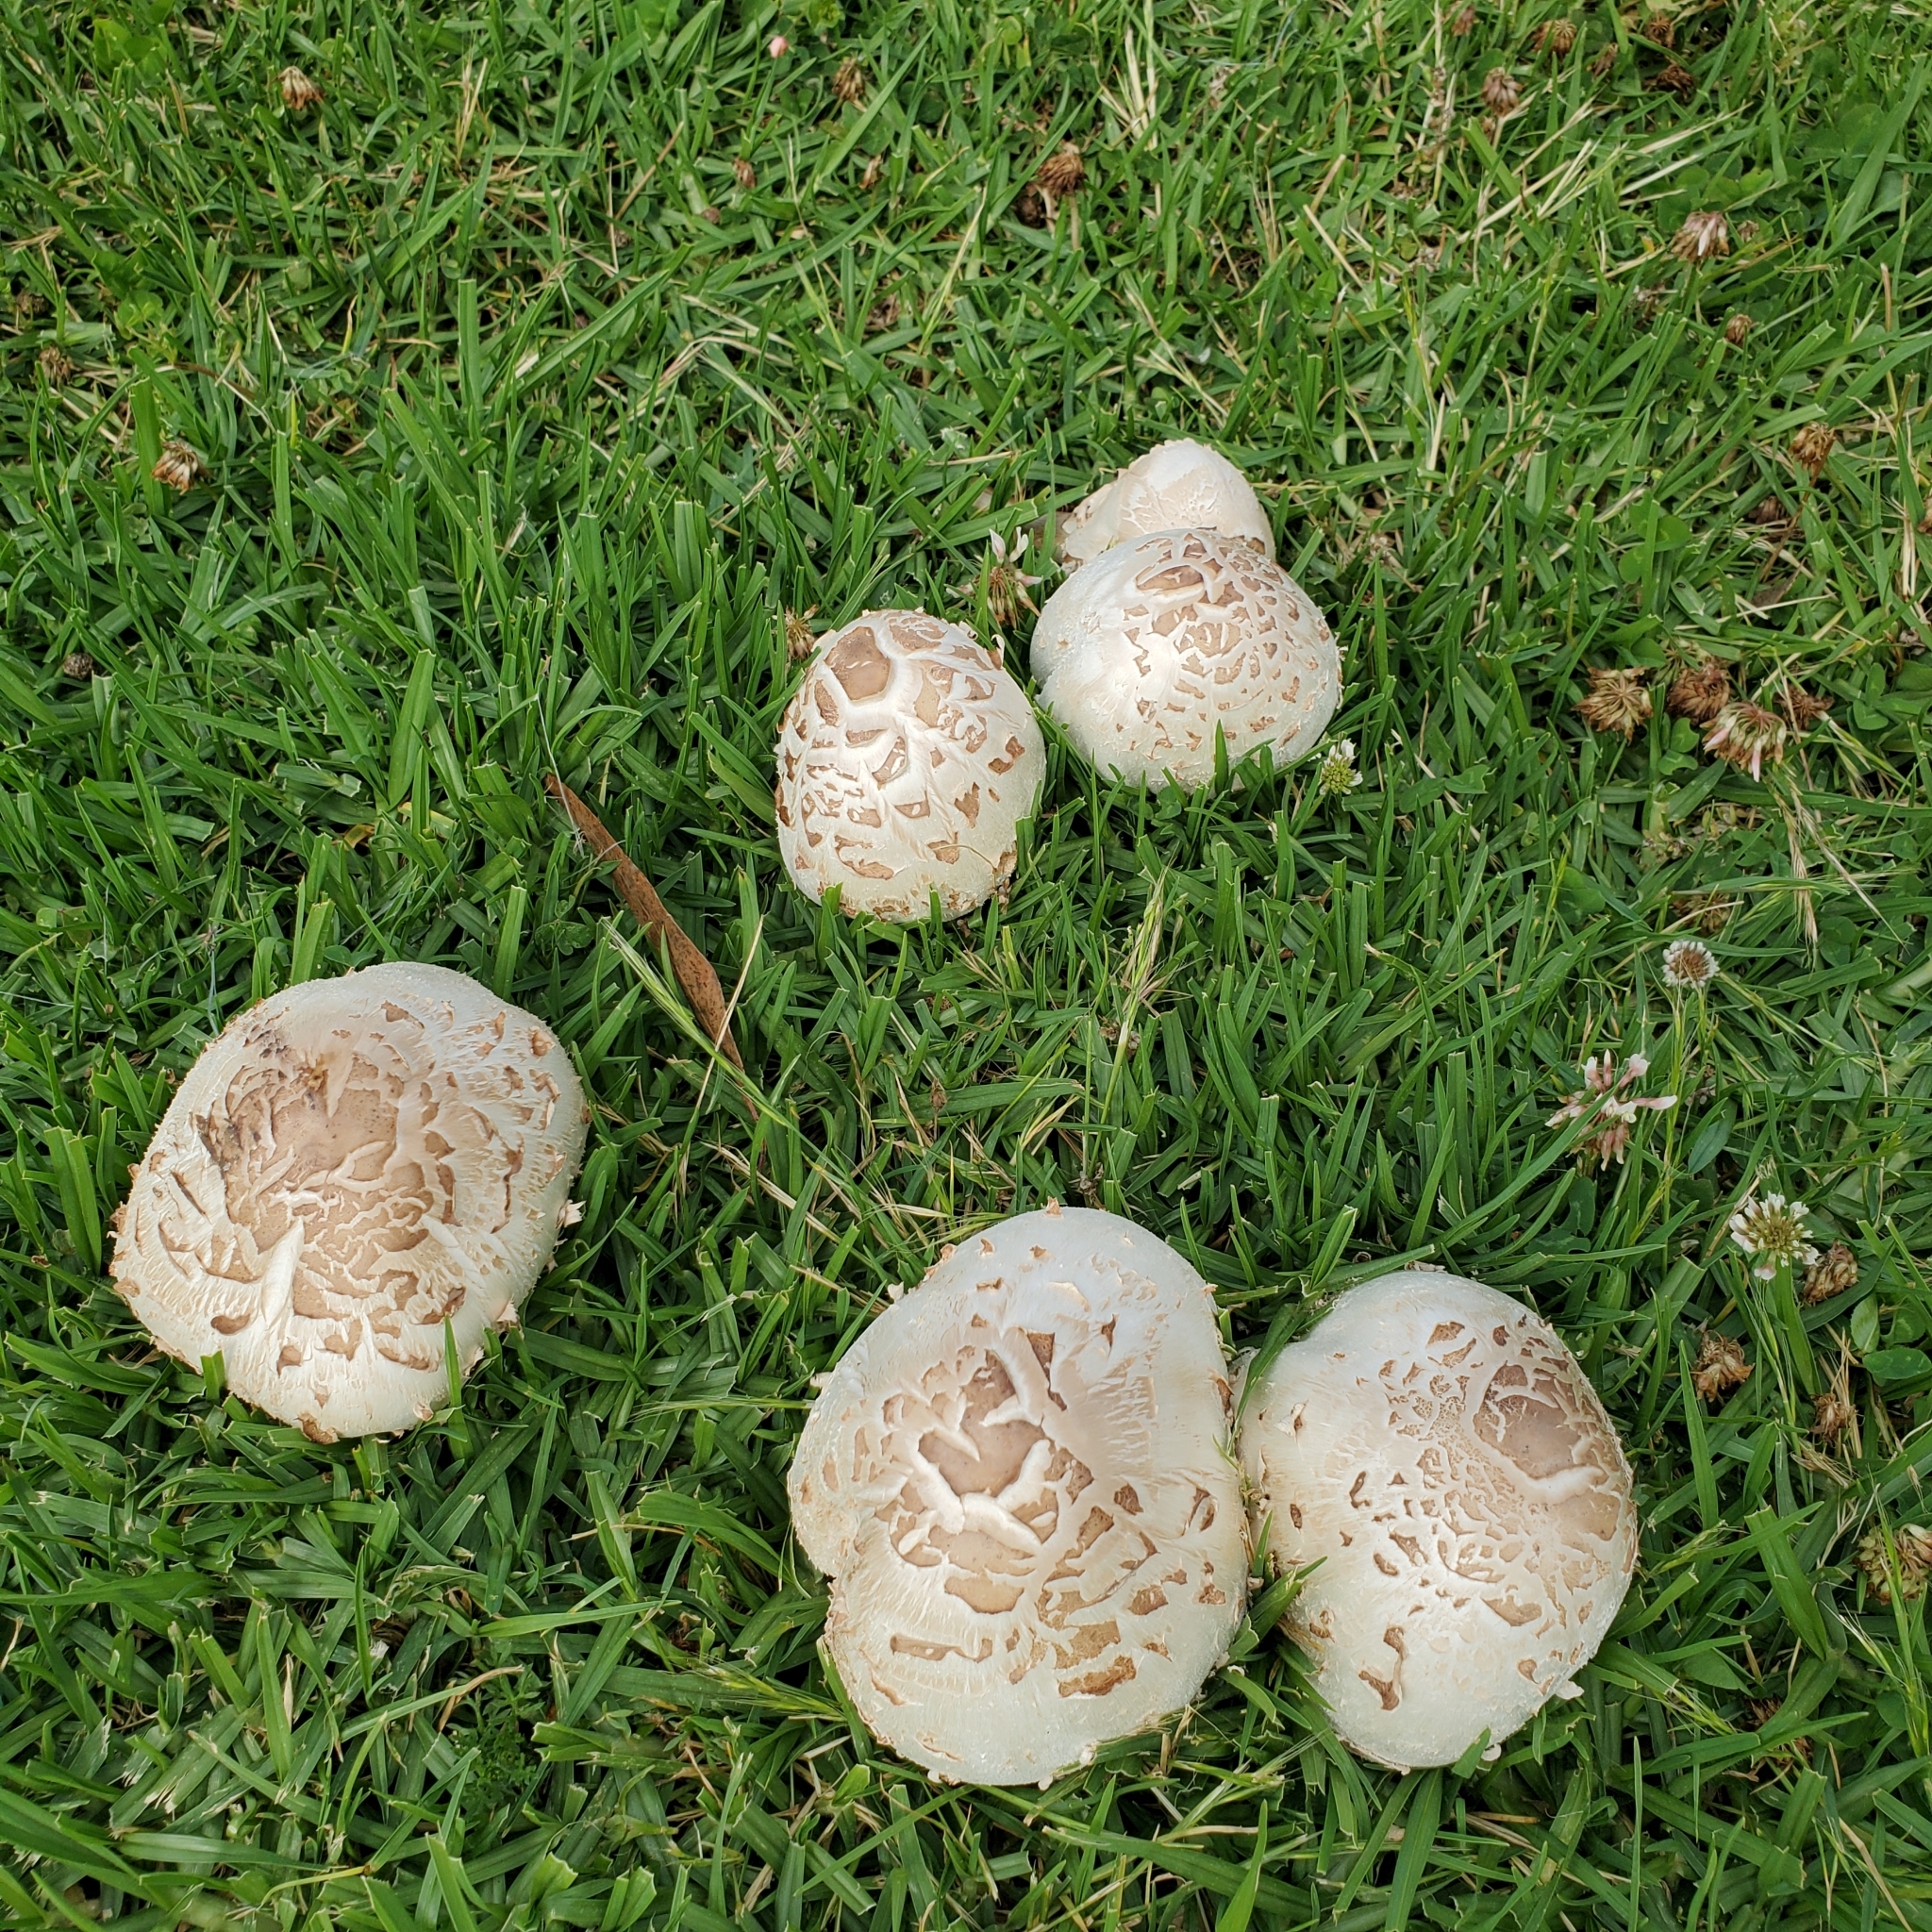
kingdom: Fungi
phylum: Basidiomycota
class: Agaricomycetes
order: Agaricales
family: Agaricaceae
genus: Chlorophyllum
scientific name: Chlorophyllum molybdites
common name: False parasol
